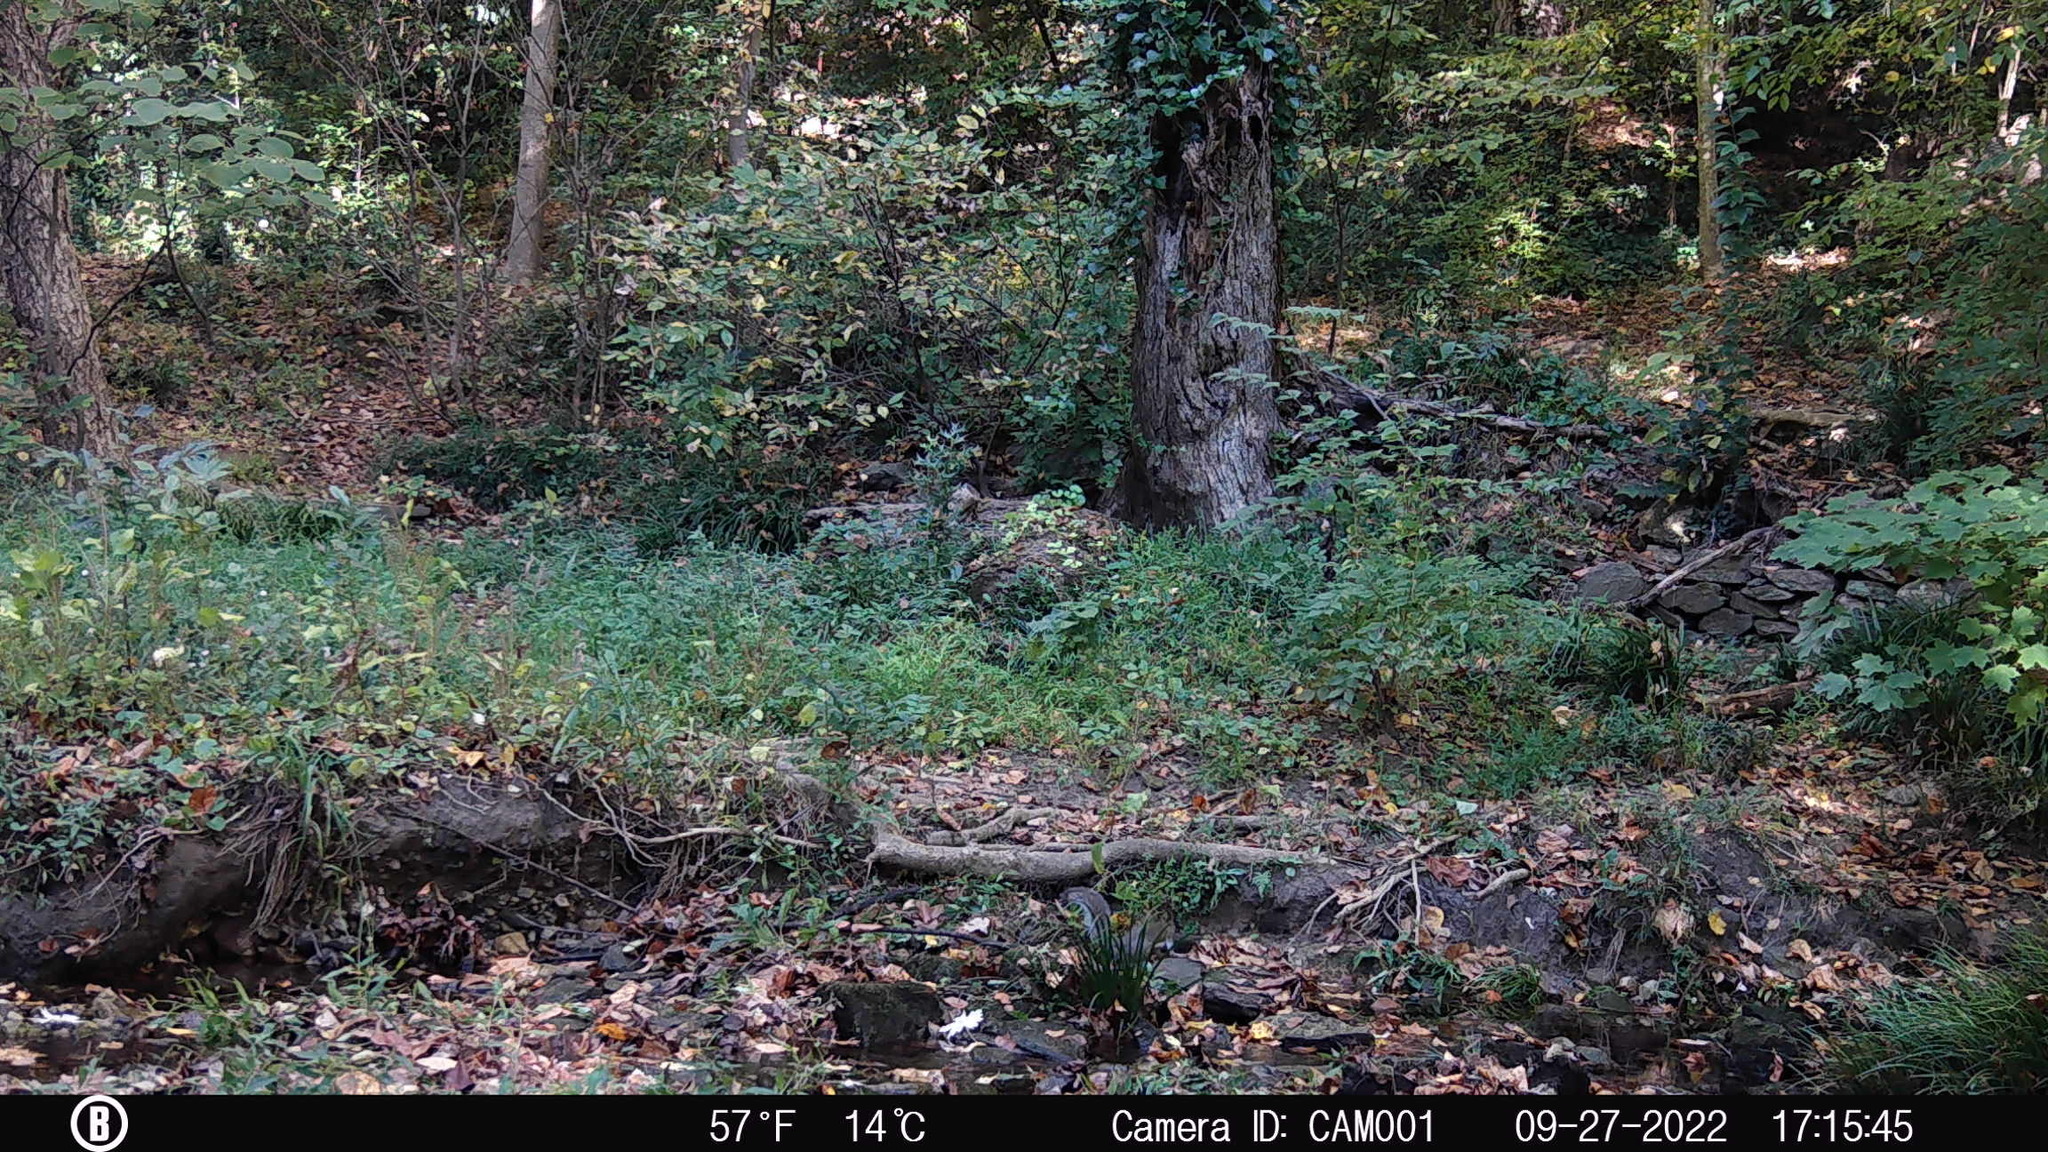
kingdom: Animalia
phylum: Chordata
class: Mammalia
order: Rodentia
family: Sciuridae
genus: Sciurus
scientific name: Sciurus carolinensis
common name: Eastern gray squirrel
